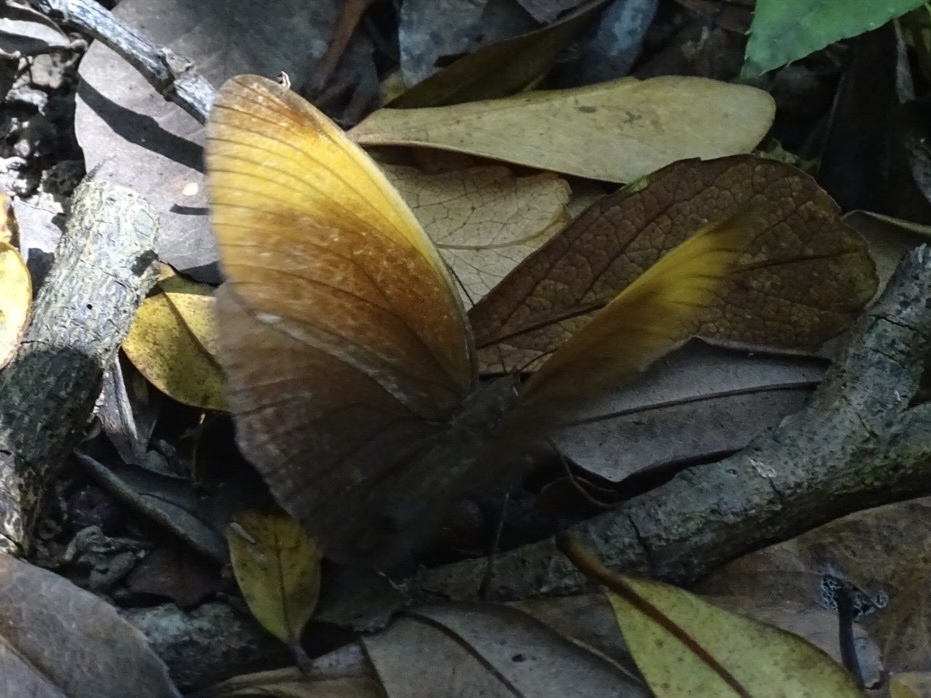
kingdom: Animalia
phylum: Arthropoda
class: Insecta
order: Lepidoptera
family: Nymphalidae
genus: Faunis
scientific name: Faunis eumeus
